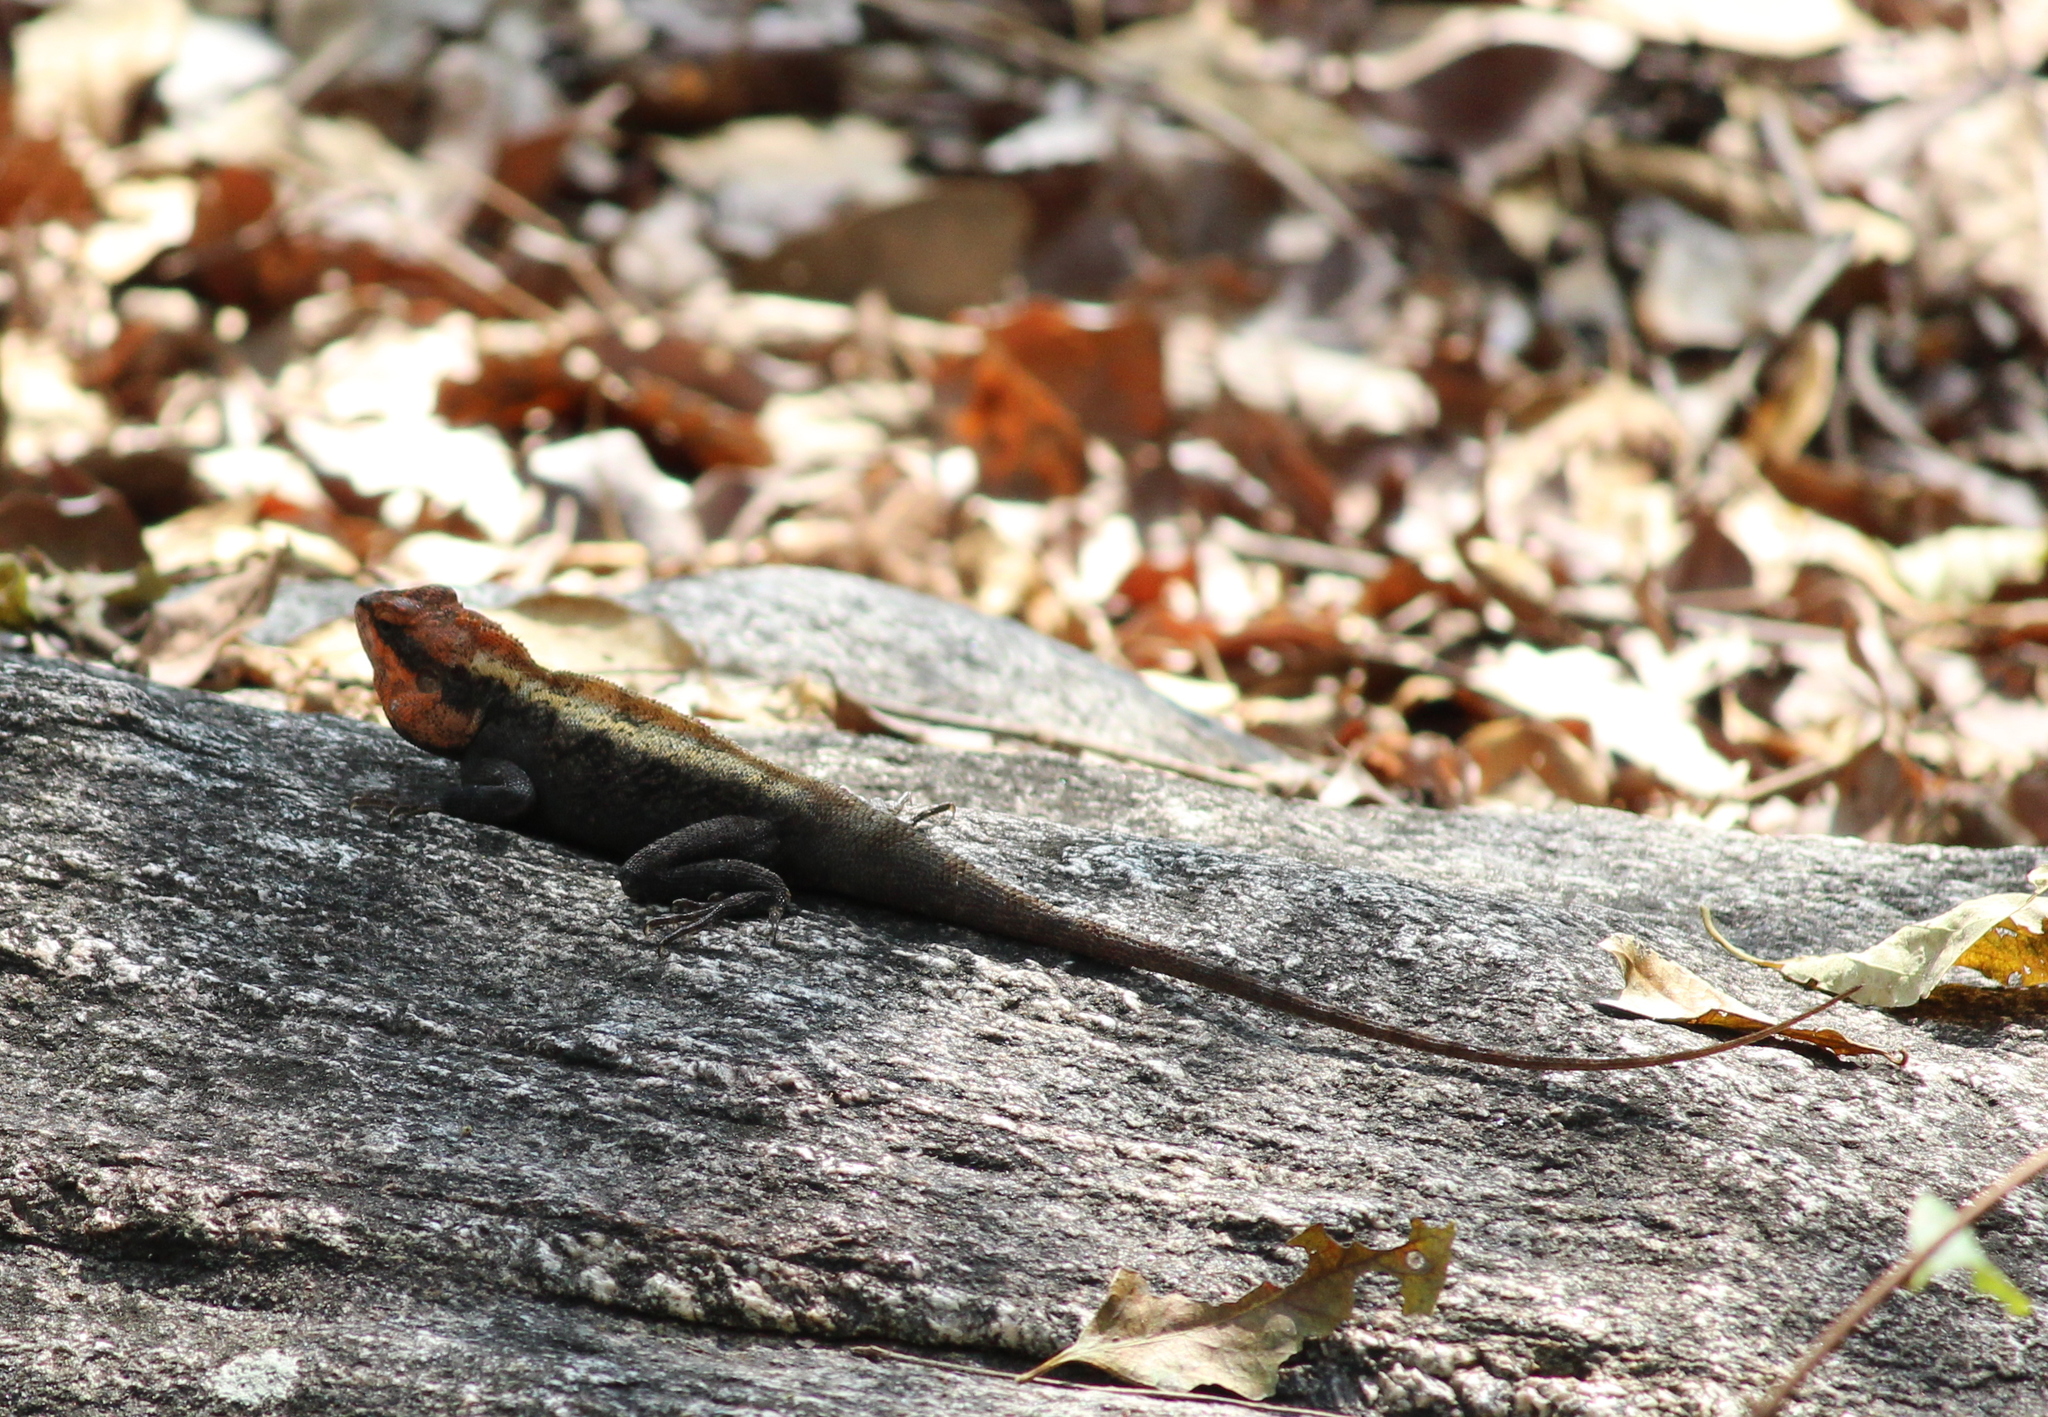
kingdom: Animalia
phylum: Chordata
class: Squamata
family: Agamidae
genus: Psammophilus
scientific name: Psammophilus dorsalis
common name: South indian rock agama
